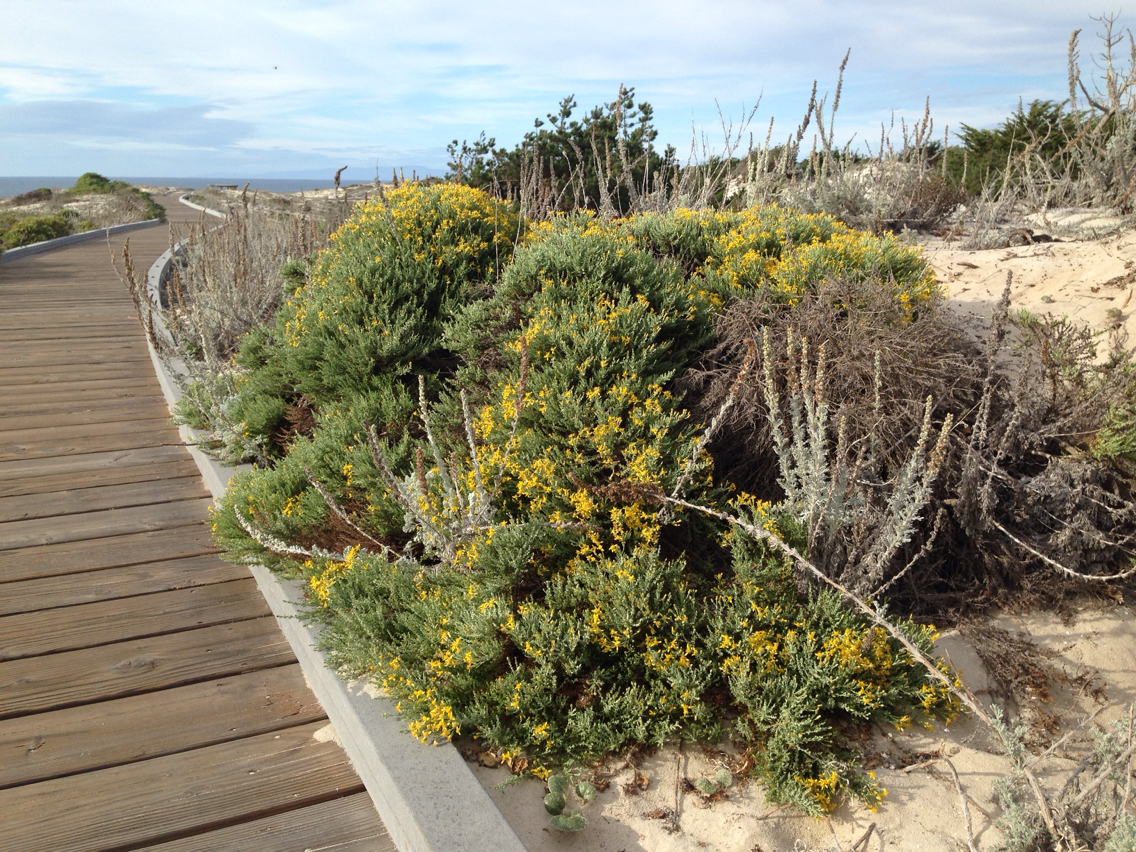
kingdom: Plantae
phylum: Tracheophyta
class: Magnoliopsida
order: Asterales
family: Asteraceae
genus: Ericameria
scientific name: Ericameria ericoides
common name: California goldenbush
